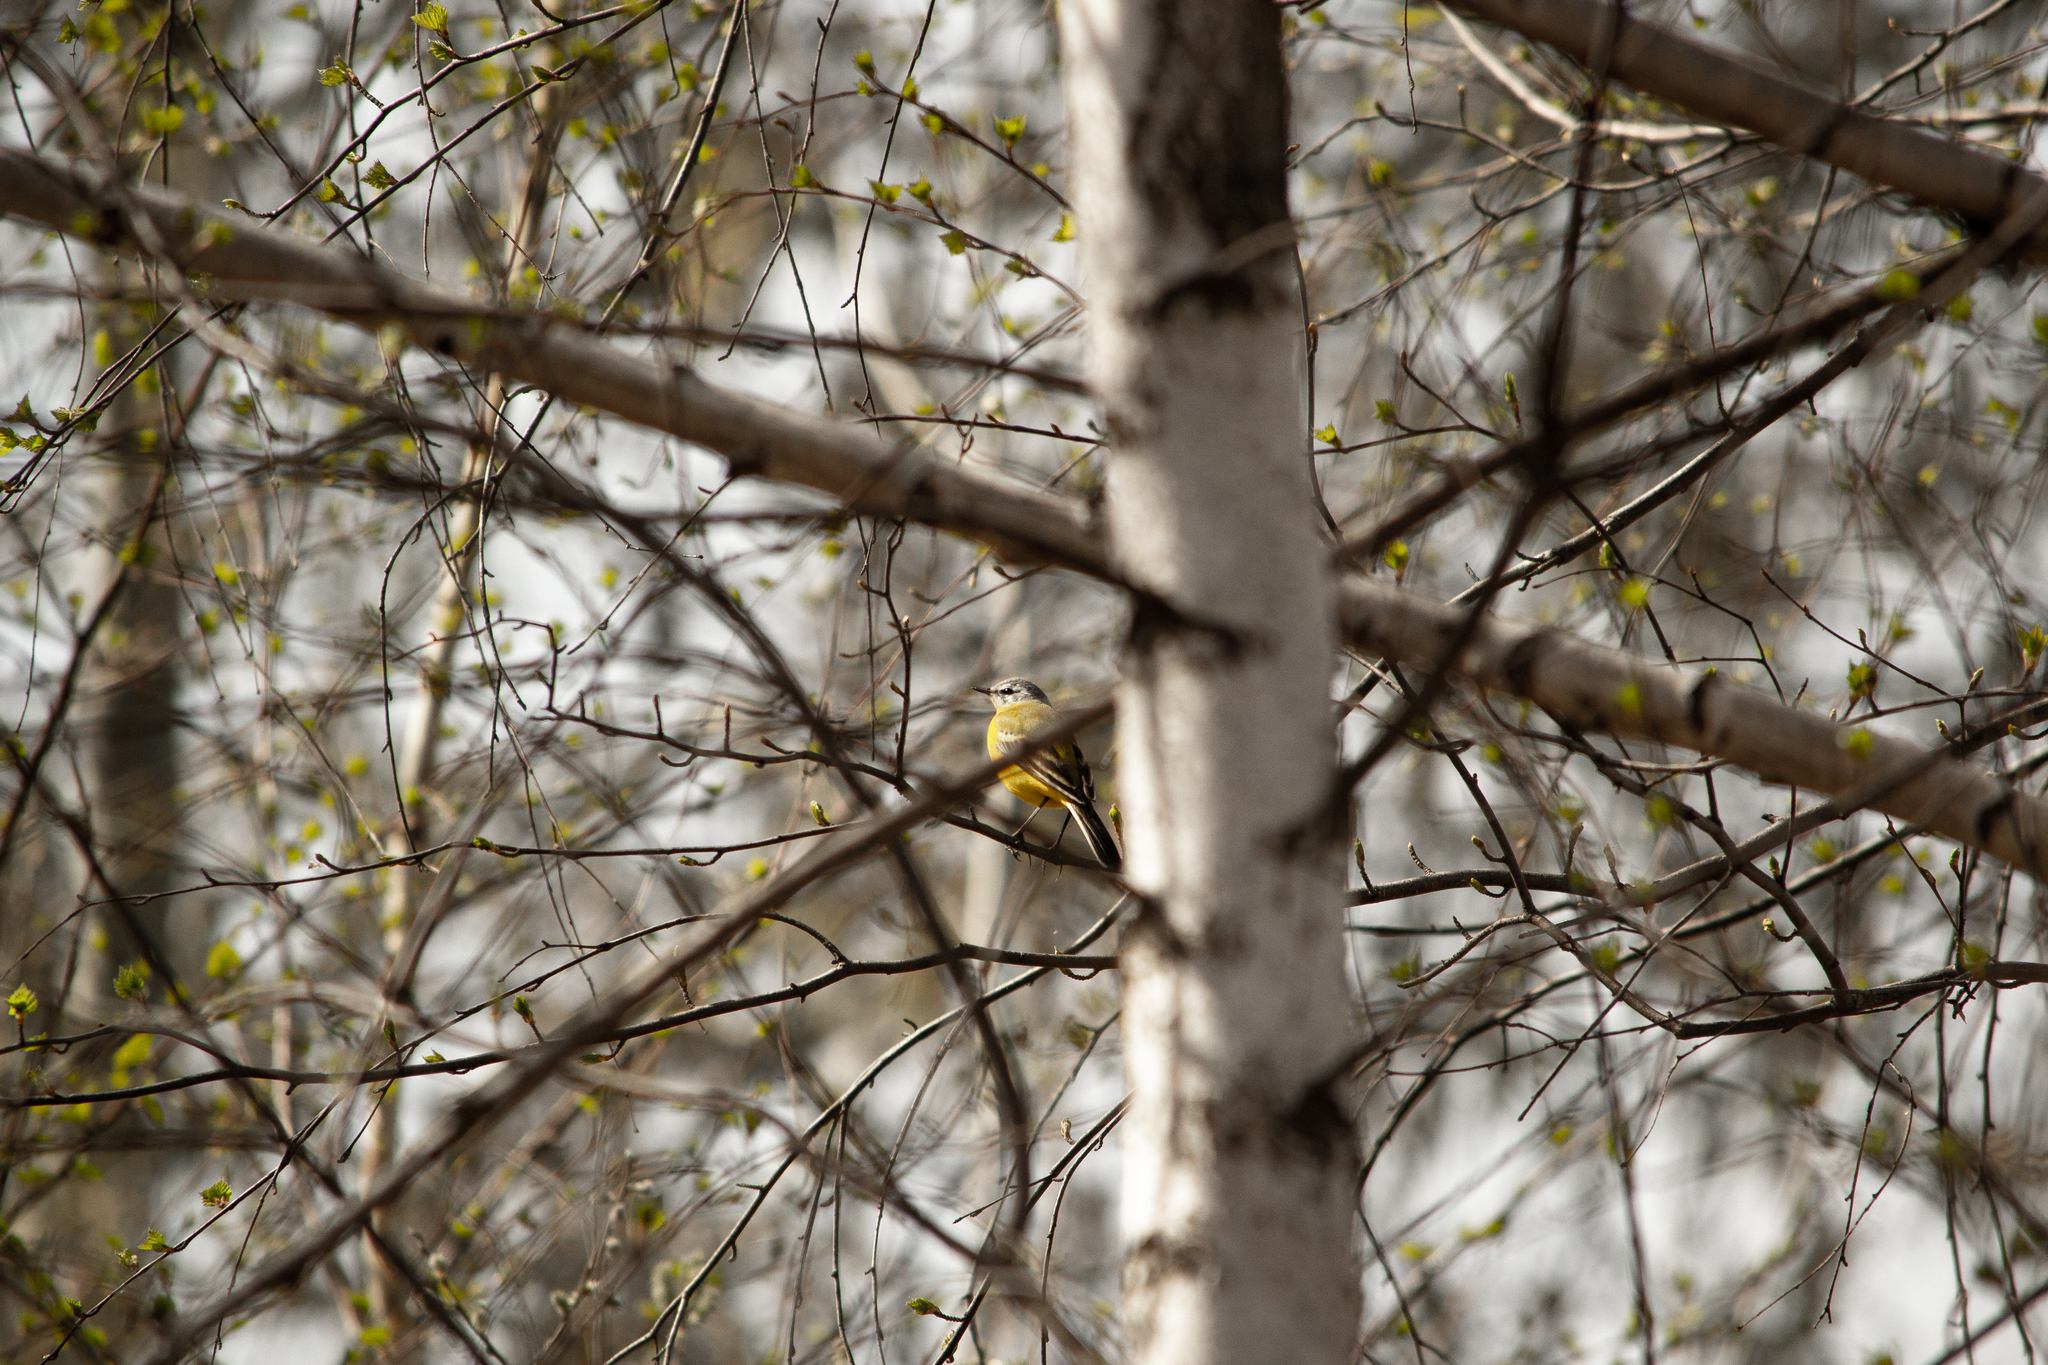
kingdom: Animalia
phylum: Chordata
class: Aves
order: Passeriformes
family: Motacillidae
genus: Motacilla
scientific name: Motacilla flava
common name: Western yellow wagtail
